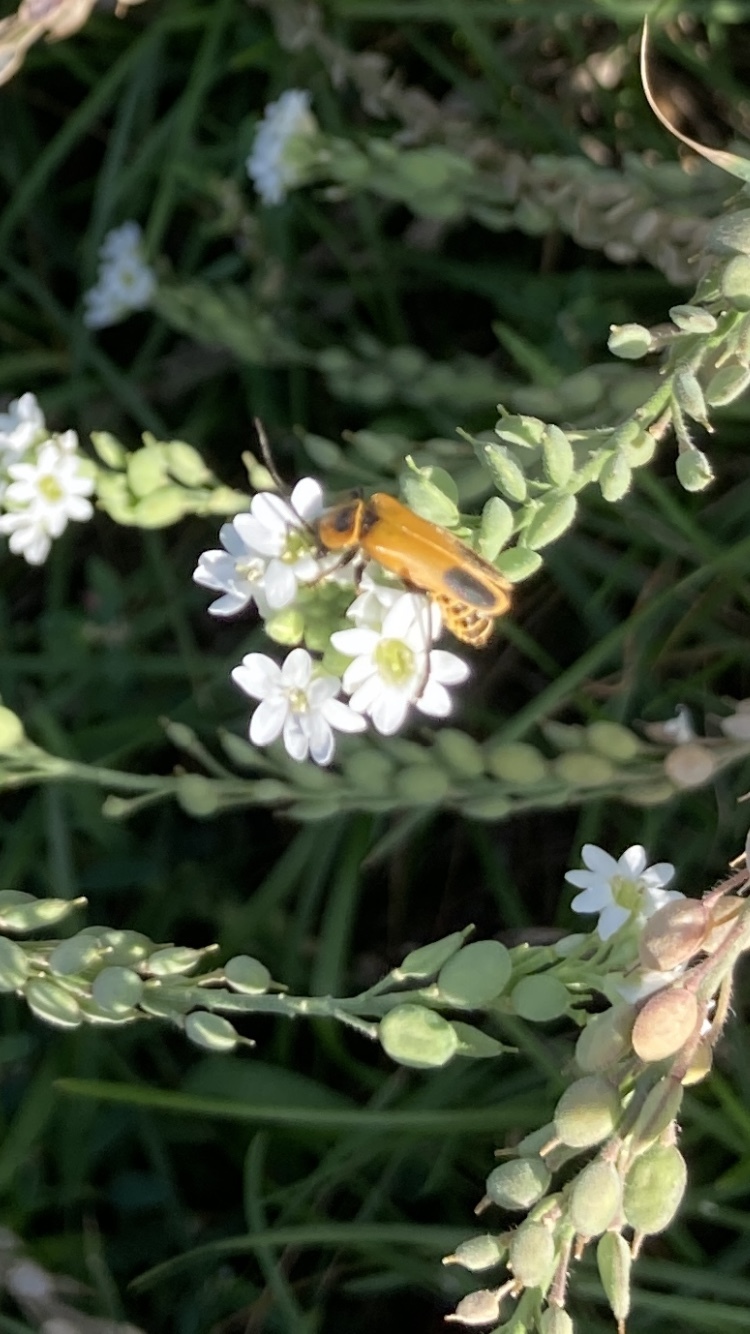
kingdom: Animalia
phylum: Arthropoda
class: Insecta
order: Coleoptera
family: Cantharidae
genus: Chauliognathus
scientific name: Chauliognathus pensylvanicus
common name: Goldenrod soldier beetle
